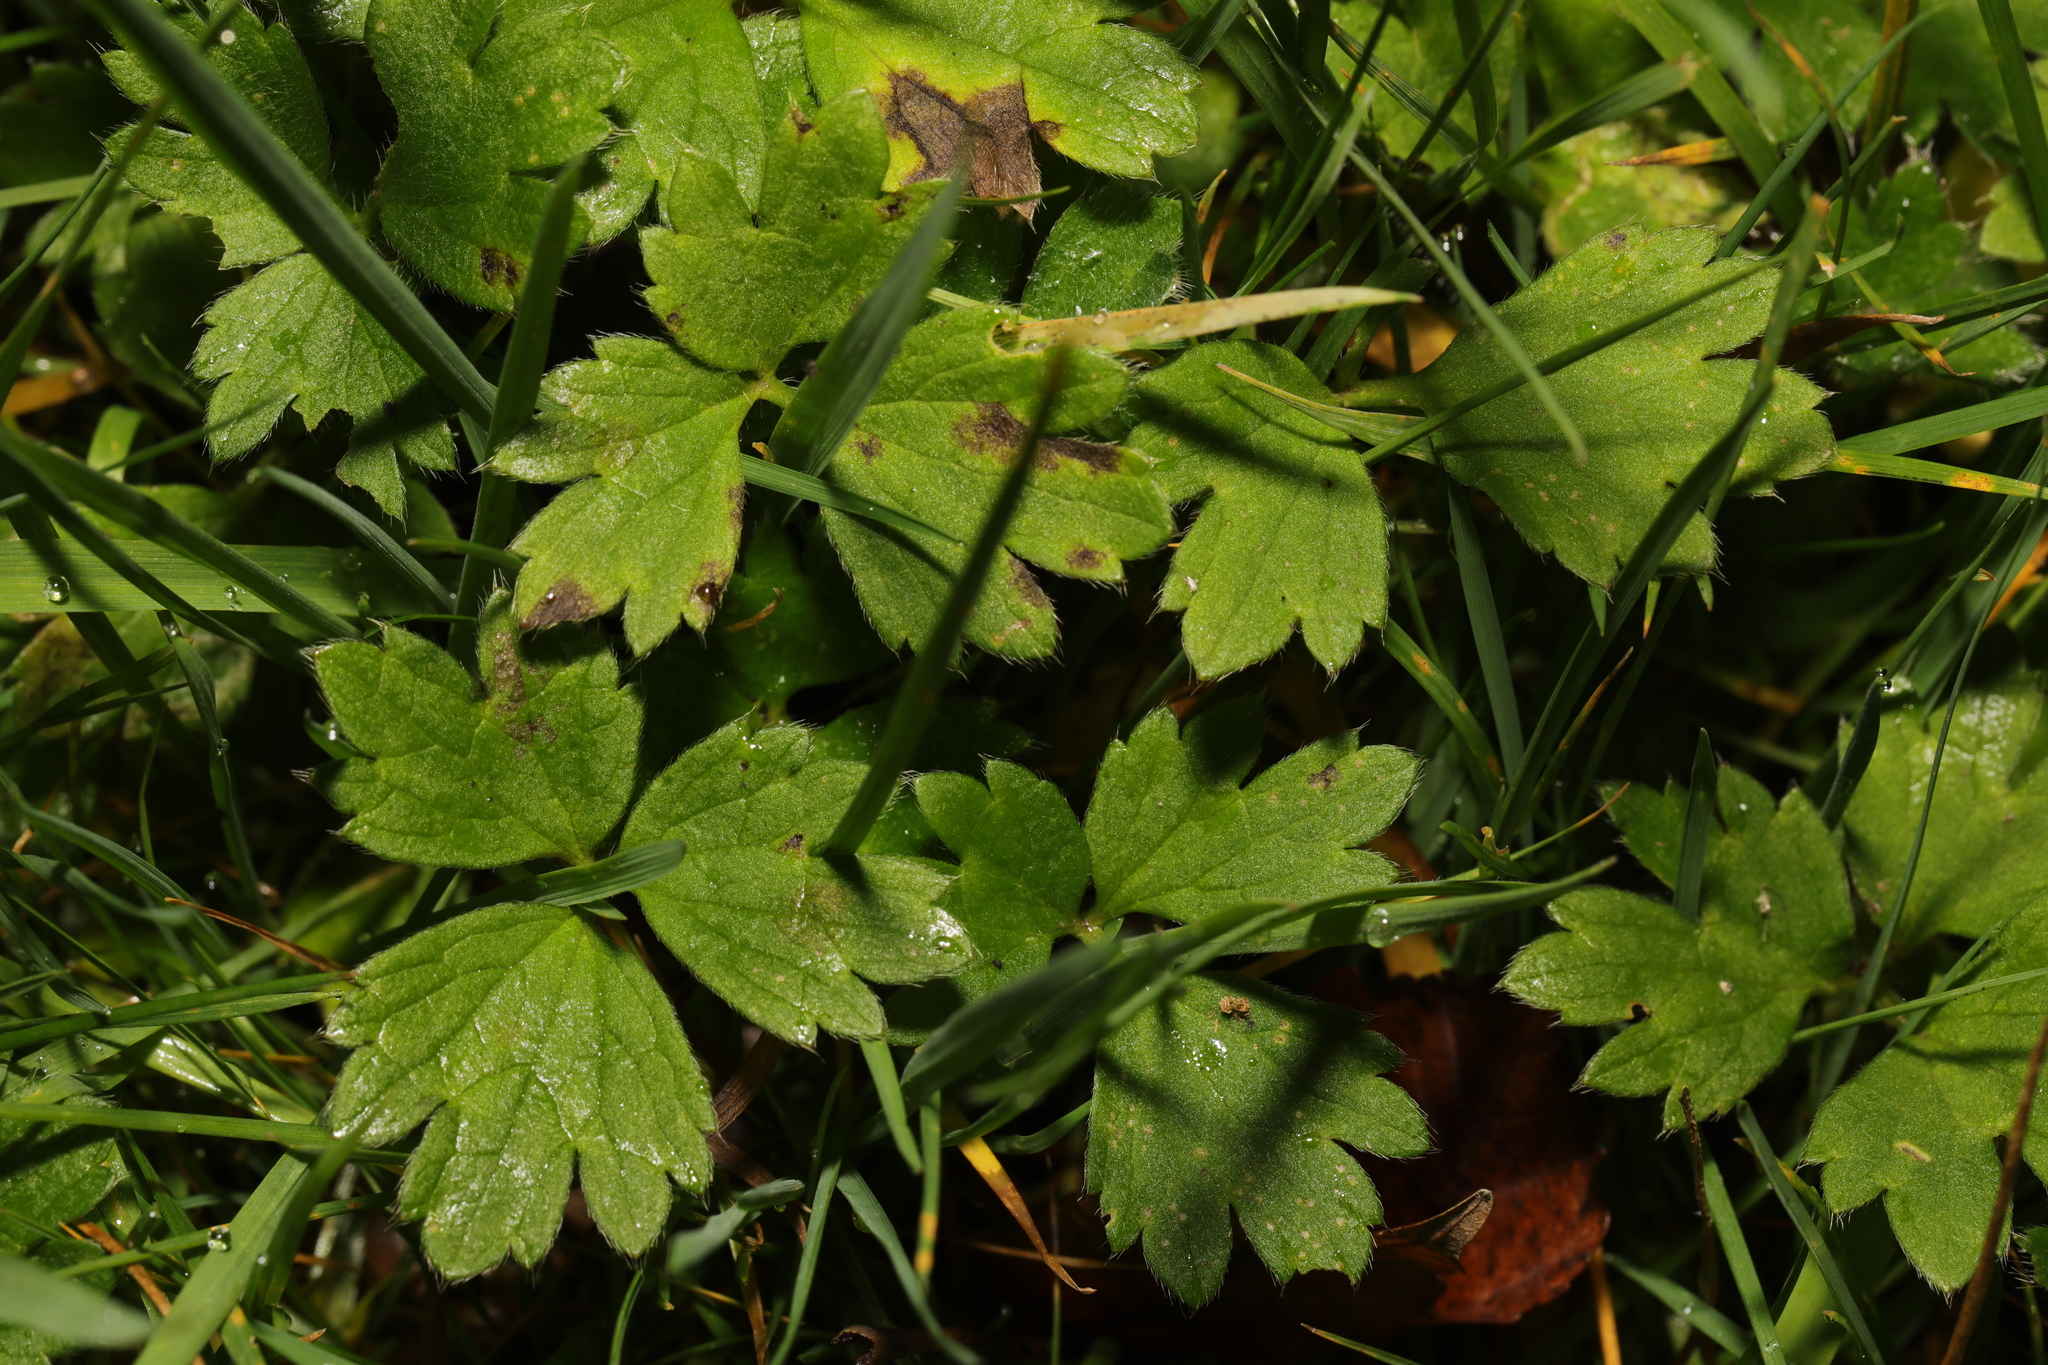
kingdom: Plantae
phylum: Tracheophyta
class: Magnoliopsida
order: Ranunculales
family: Ranunculaceae
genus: Ranunculus
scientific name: Ranunculus repens
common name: Creeping buttercup
